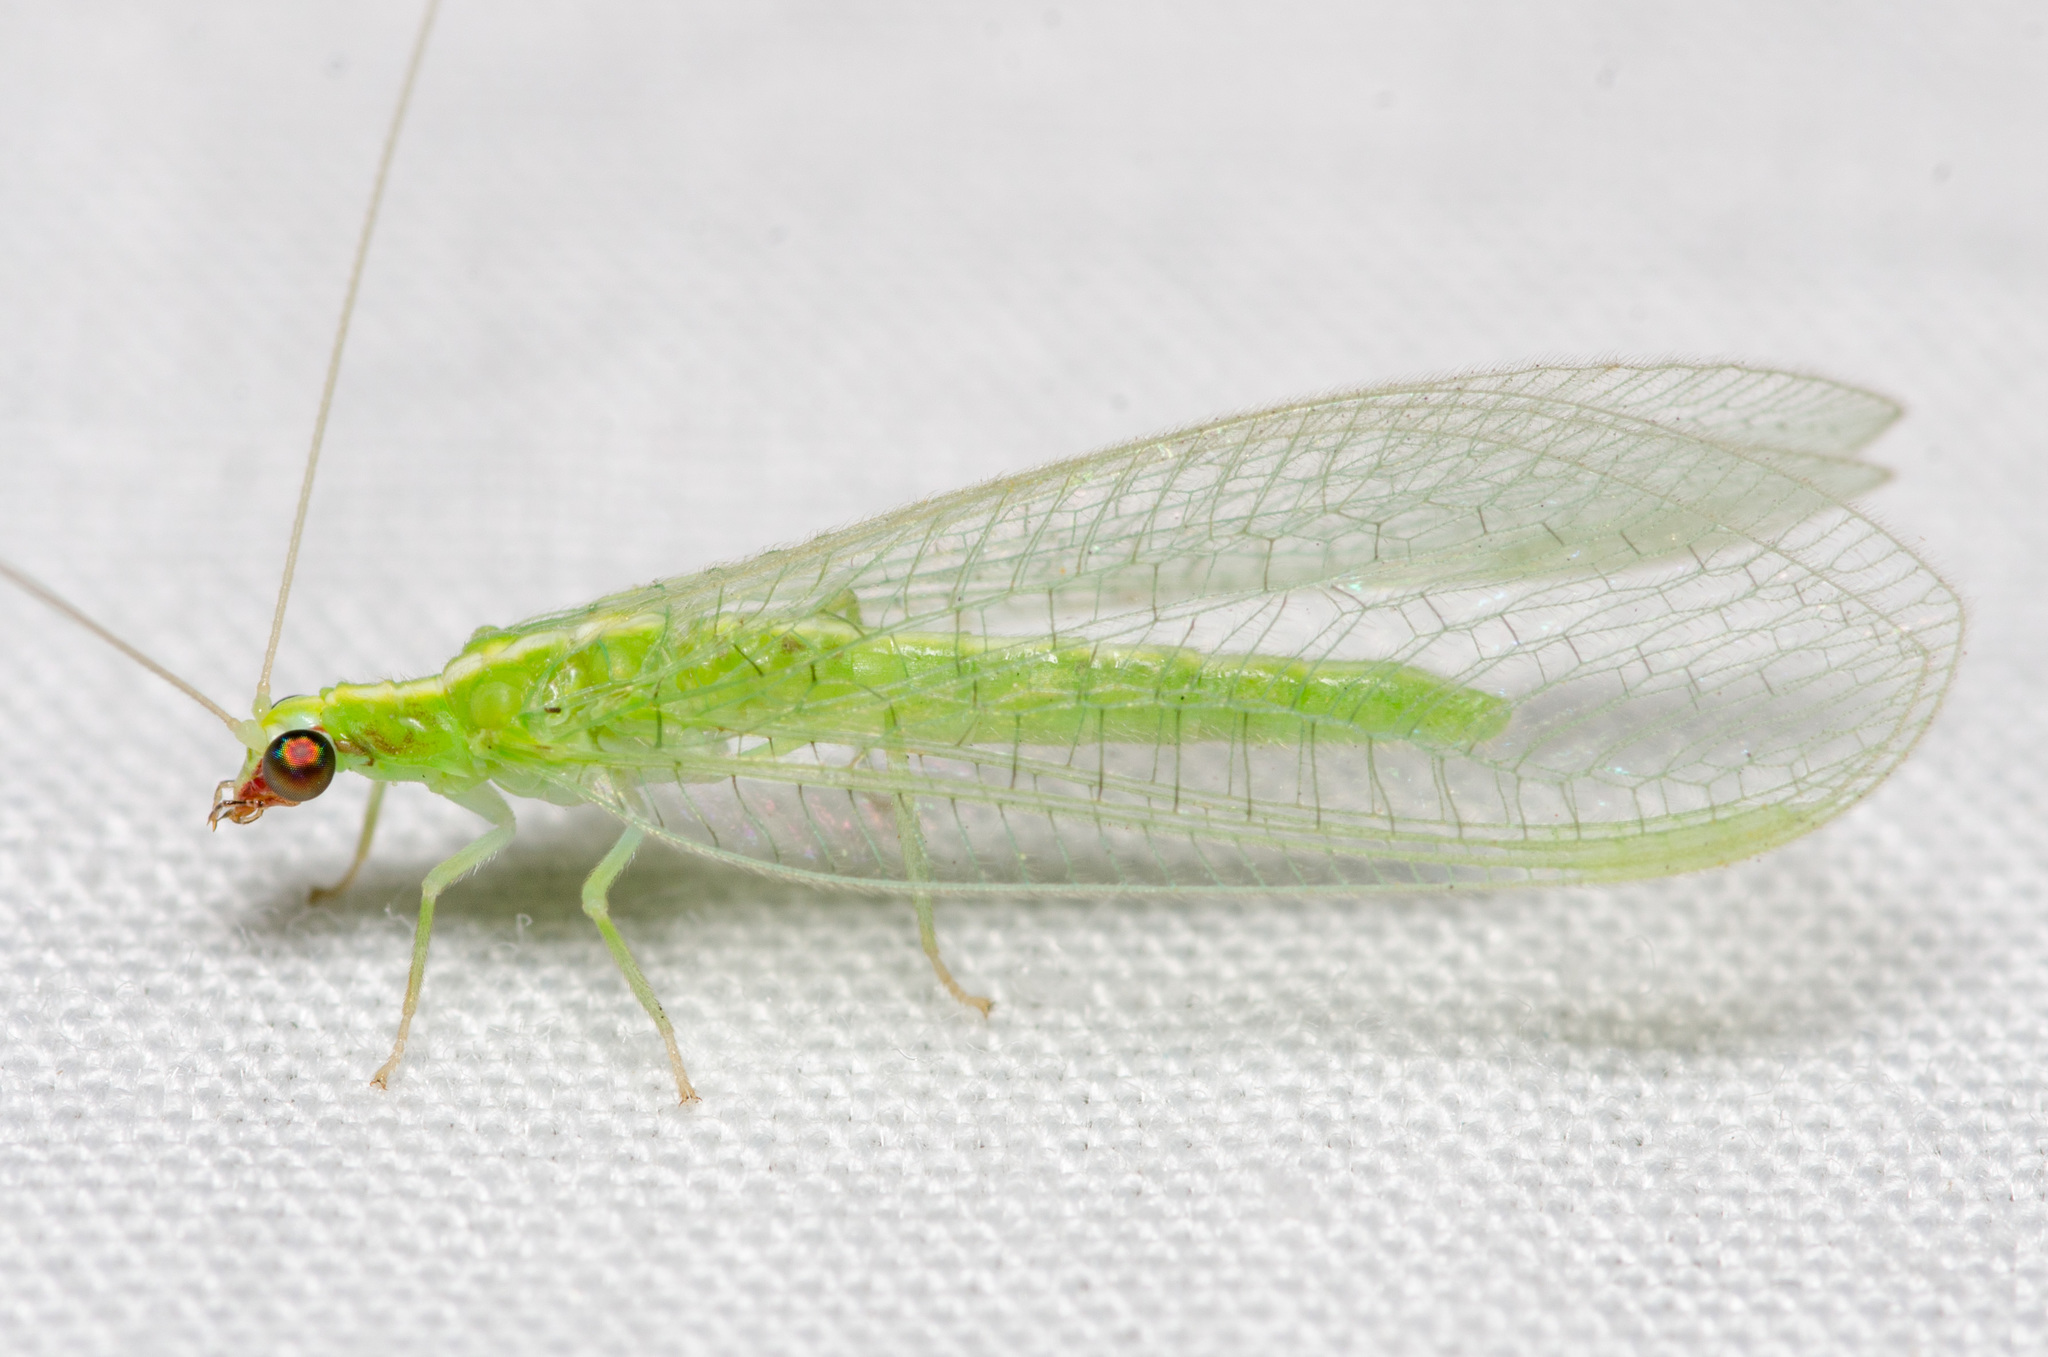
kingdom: Animalia
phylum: Arthropoda
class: Insecta
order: Neuroptera
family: Chrysopidae
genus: Chrysoperla
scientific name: Chrysoperla rufilabris
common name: Red-lipped green lacewing
